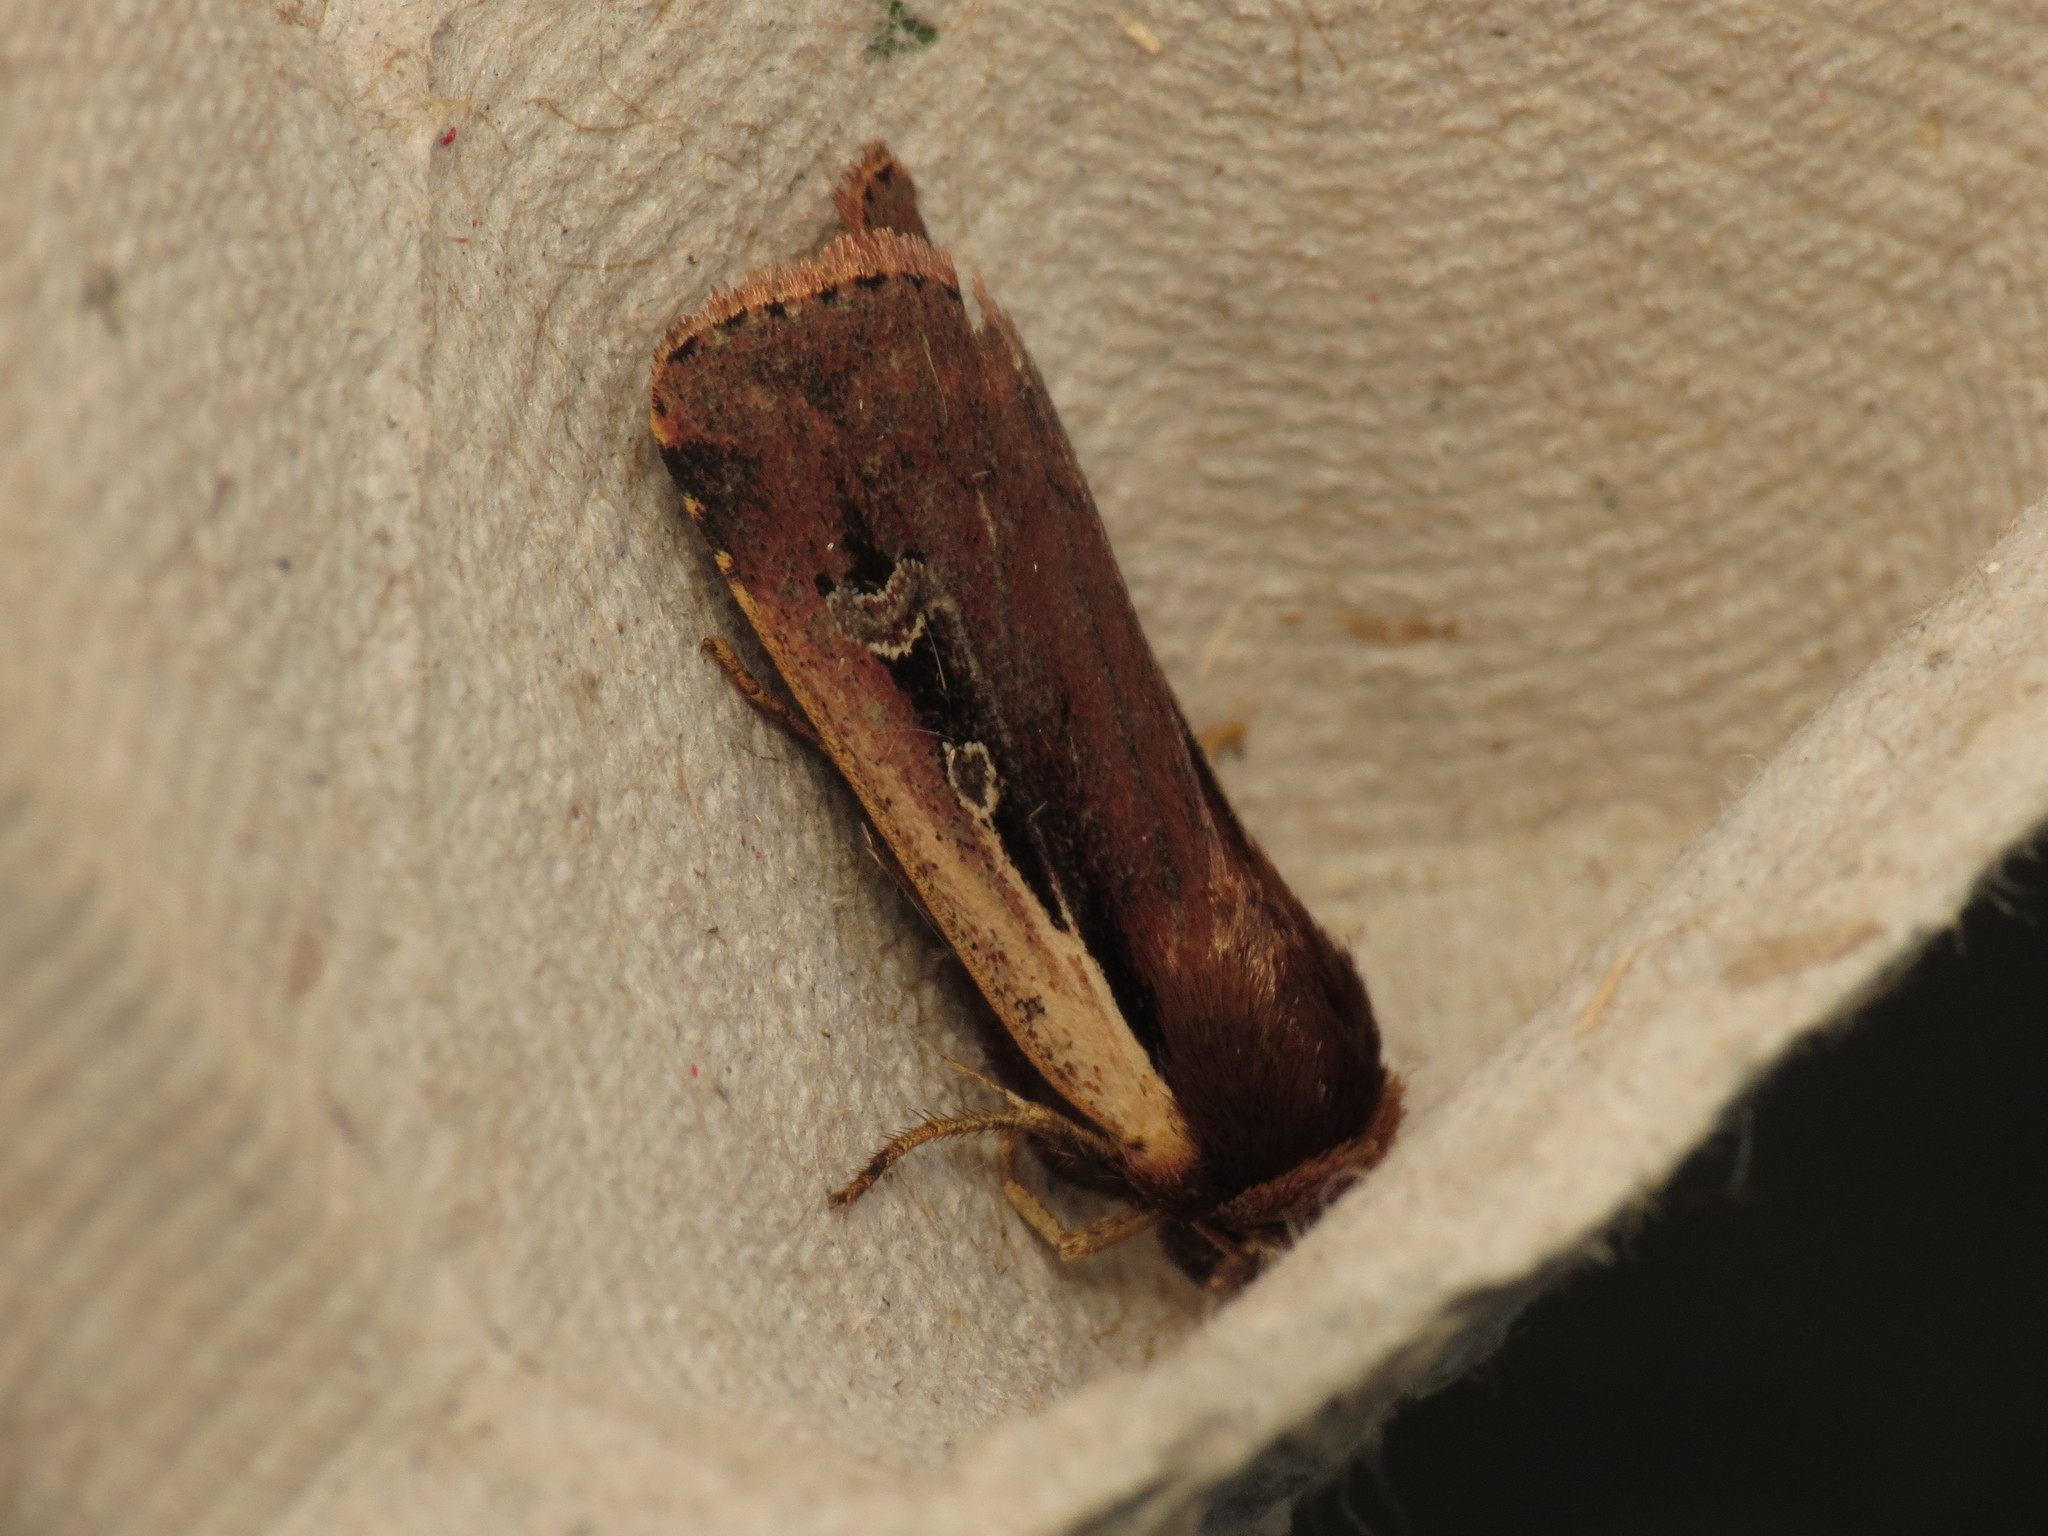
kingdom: Animalia
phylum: Arthropoda
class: Insecta
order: Lepidoptera
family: Noctuidae
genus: Ochropleura
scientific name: Ochropleura plecta
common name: Flame shoulder
